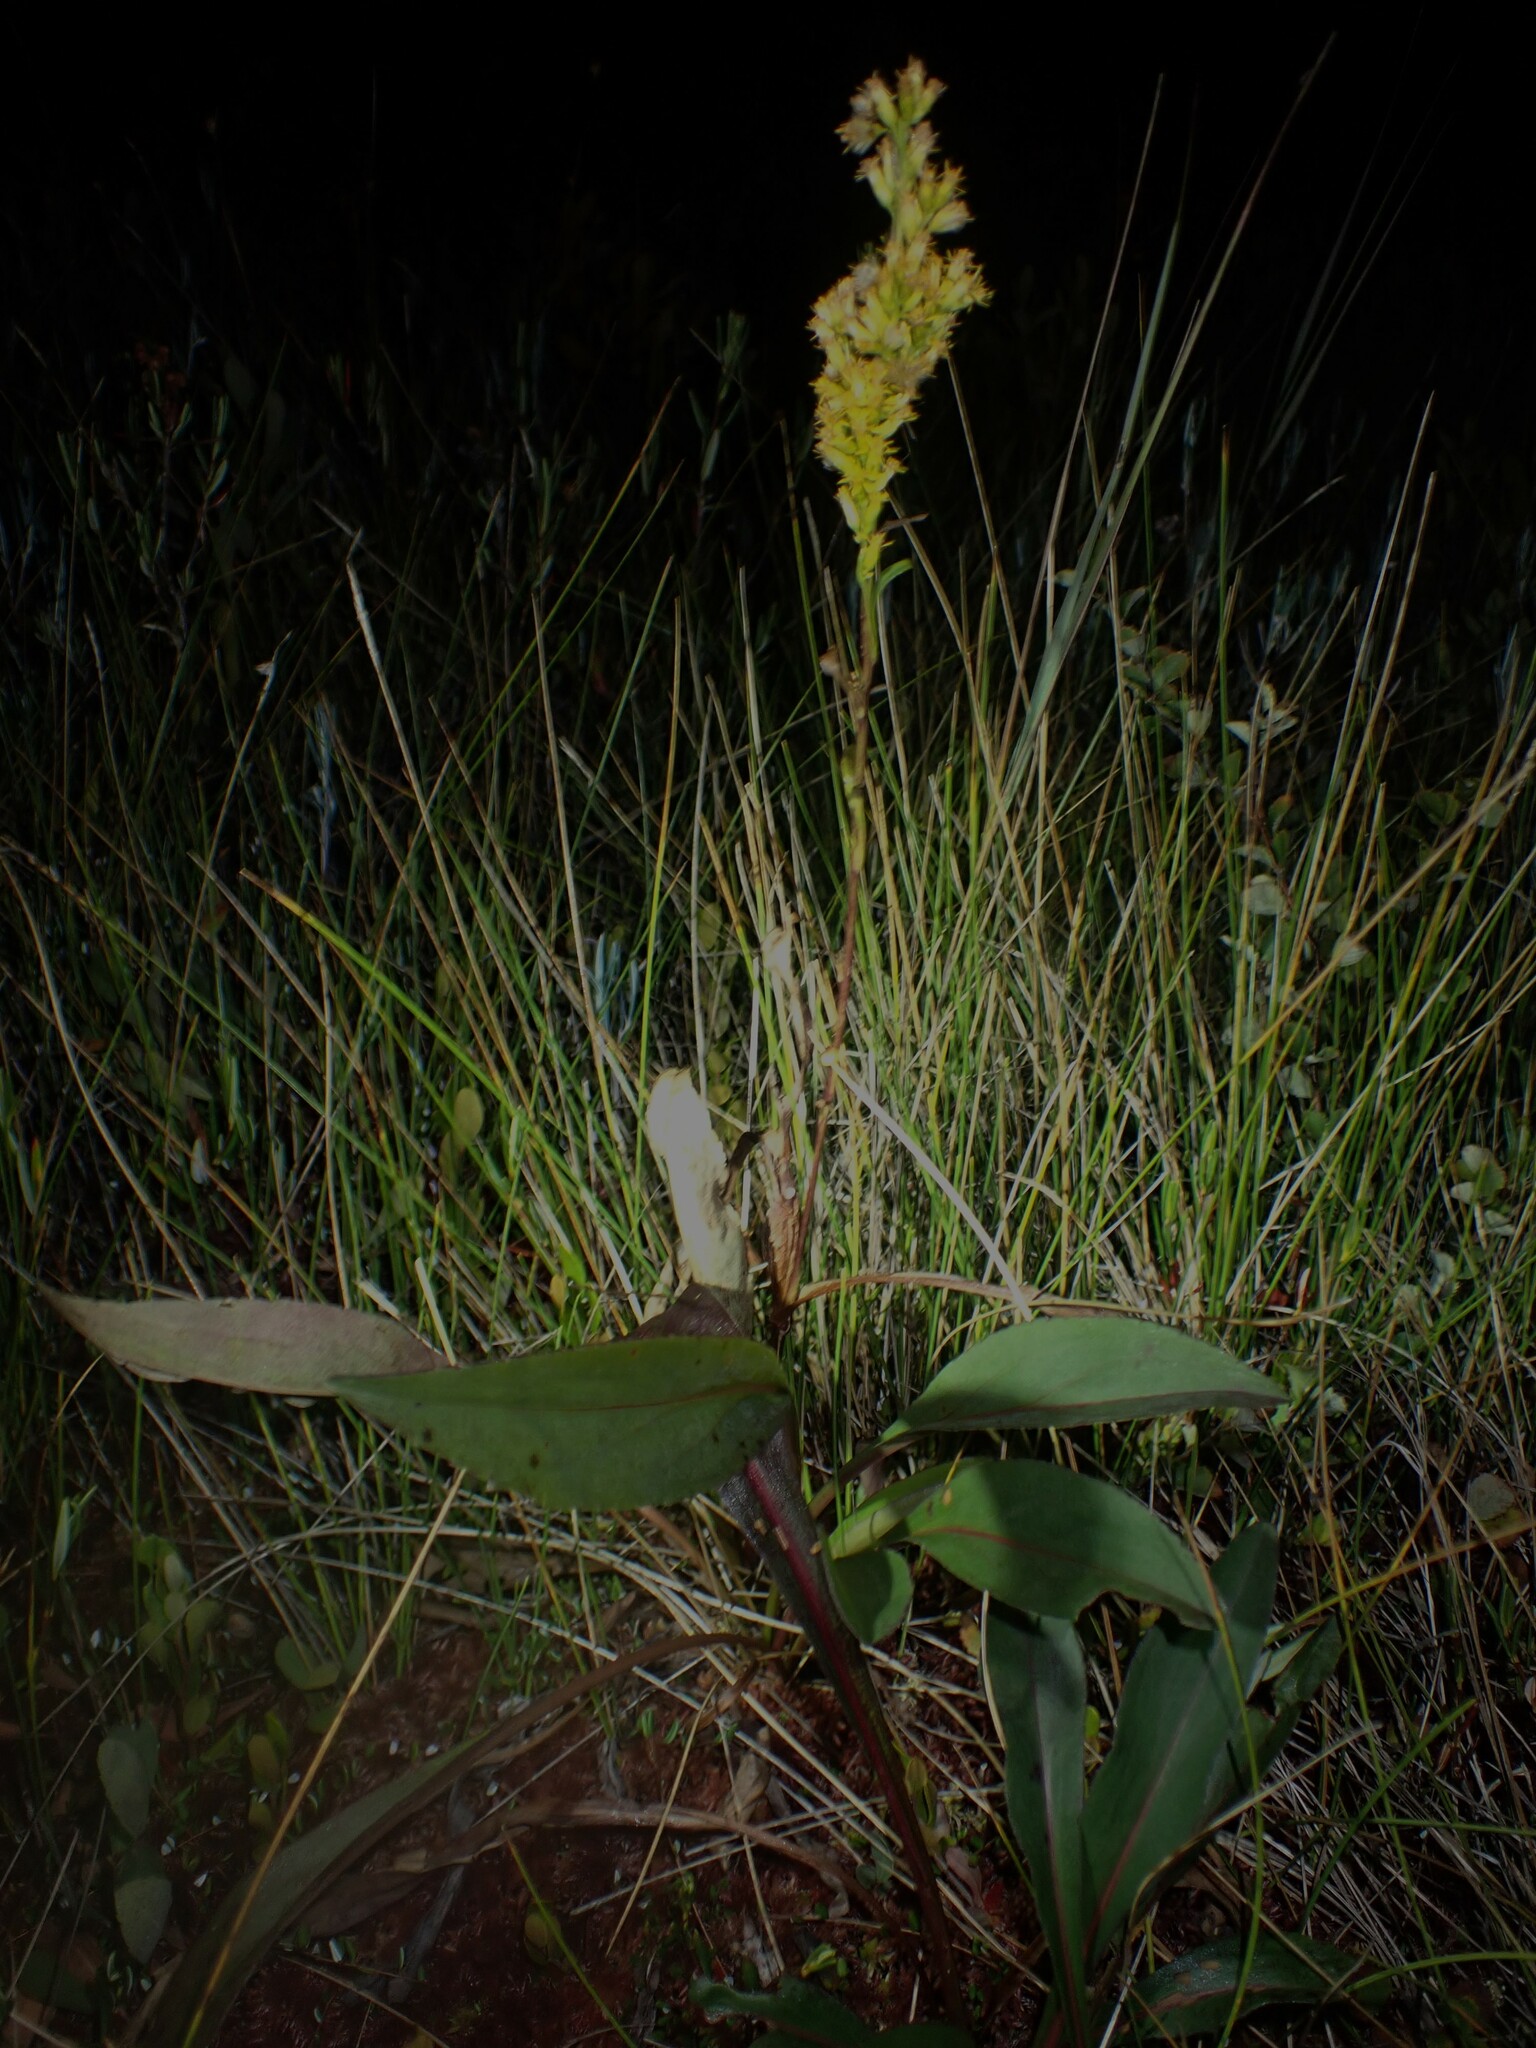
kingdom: Plantae
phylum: Tracheophyta
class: Magnoliopsida
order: Asterales
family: Asteraceae
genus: Solidago
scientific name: Solidago uliginosa
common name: Bog goldenrod
